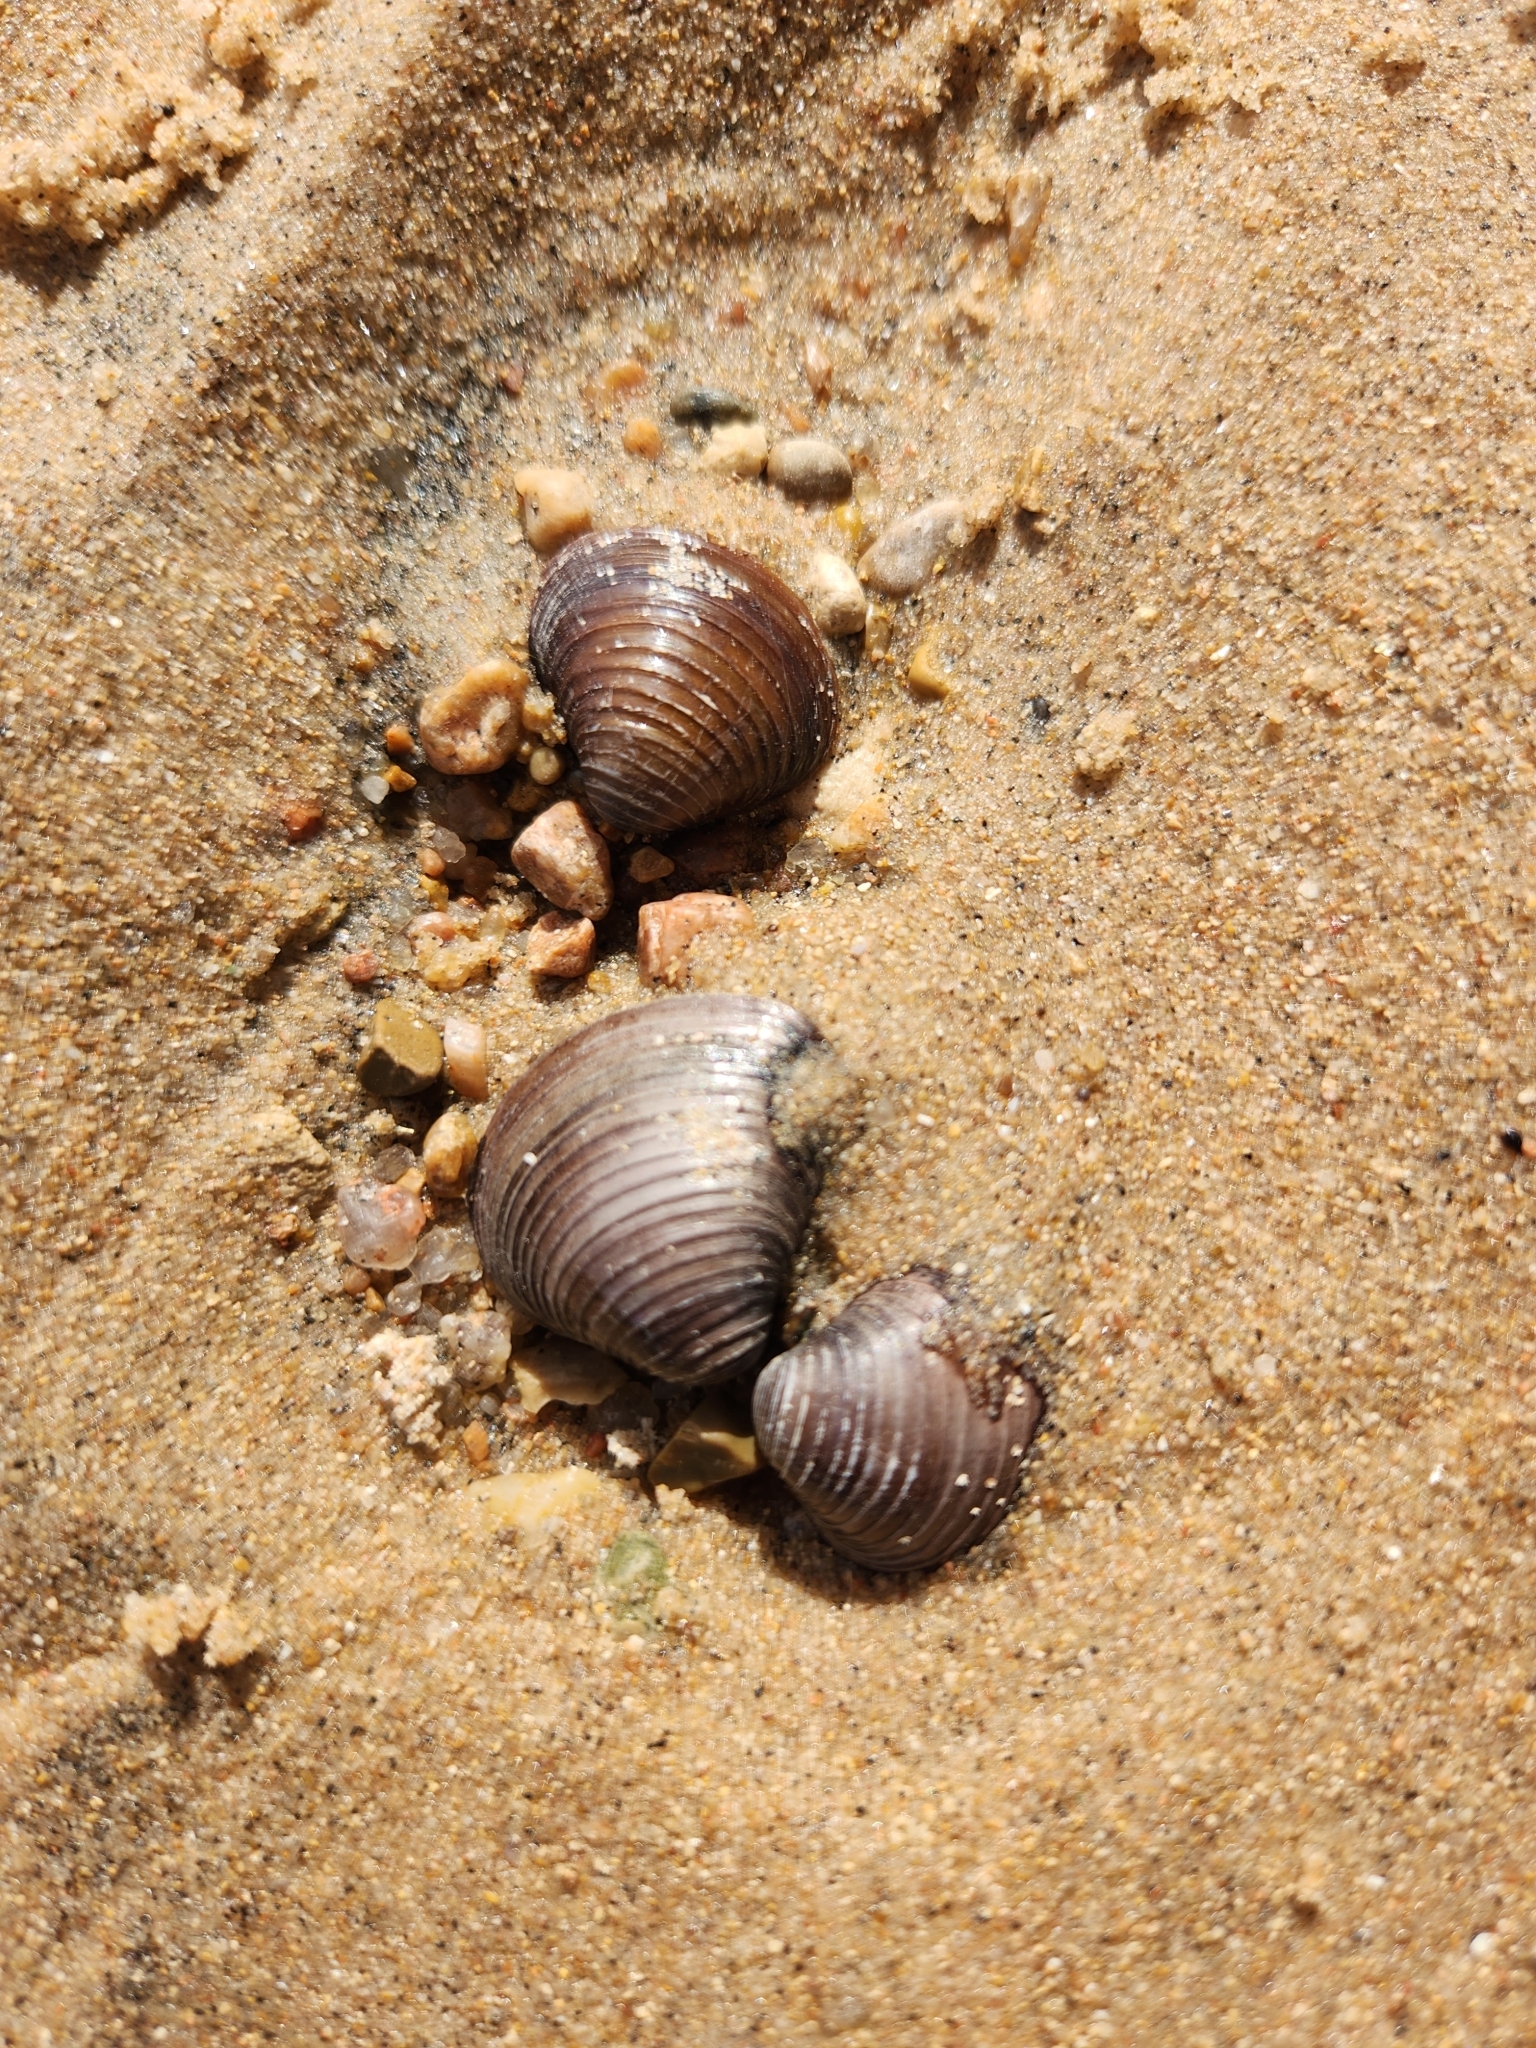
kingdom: Animalia
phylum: Mollusca
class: Bivalvia
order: Venerida
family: Cyrenidae
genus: Corbicula
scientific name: Corbicula fluminea
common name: Asian clam
